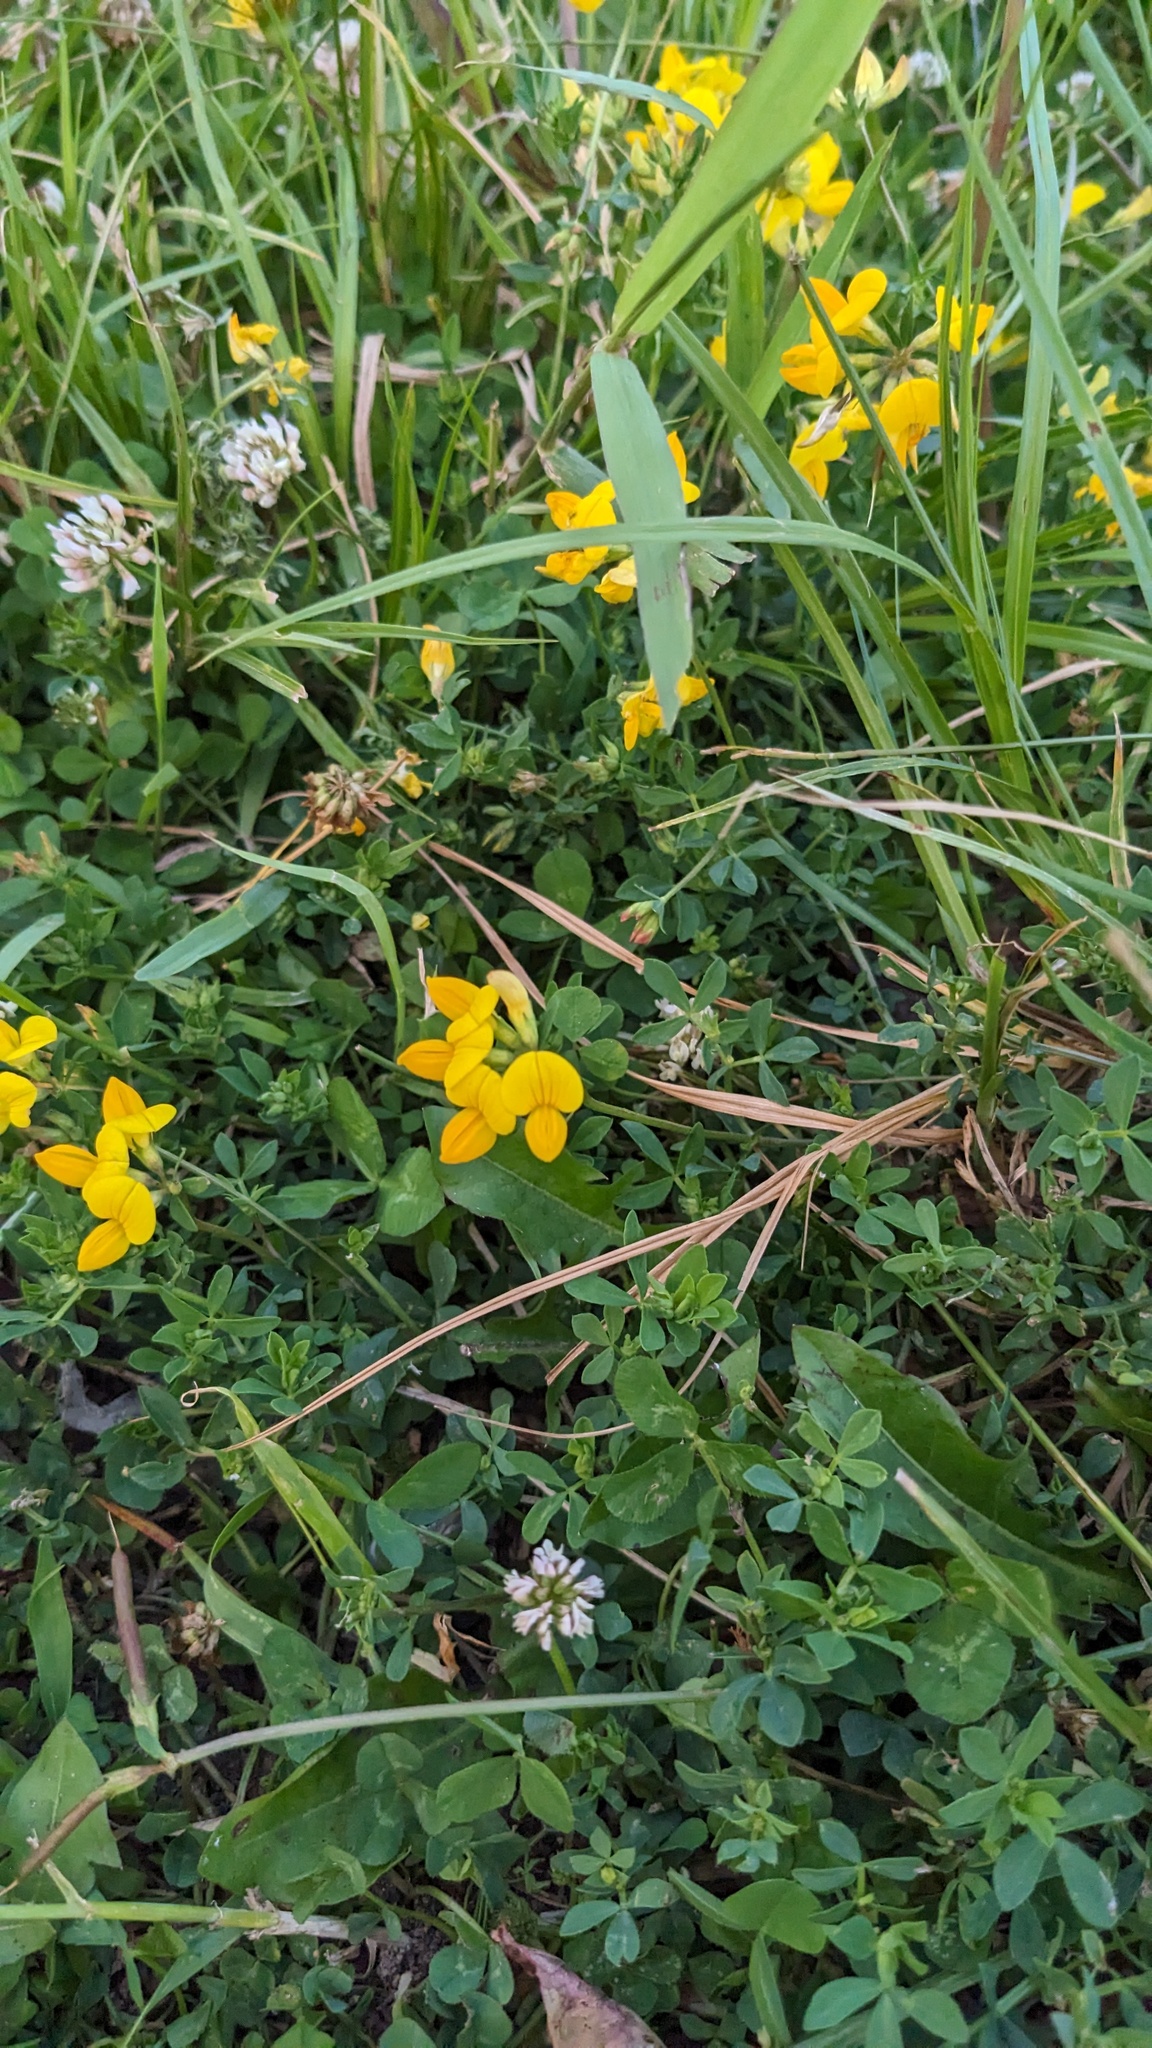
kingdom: Plantae
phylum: Tracheophyta
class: Magnoliopsida
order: Fabales
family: Fabaceae
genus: Lotus
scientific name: Lotus corniculatus
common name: Common bird's-foot-trefoil
